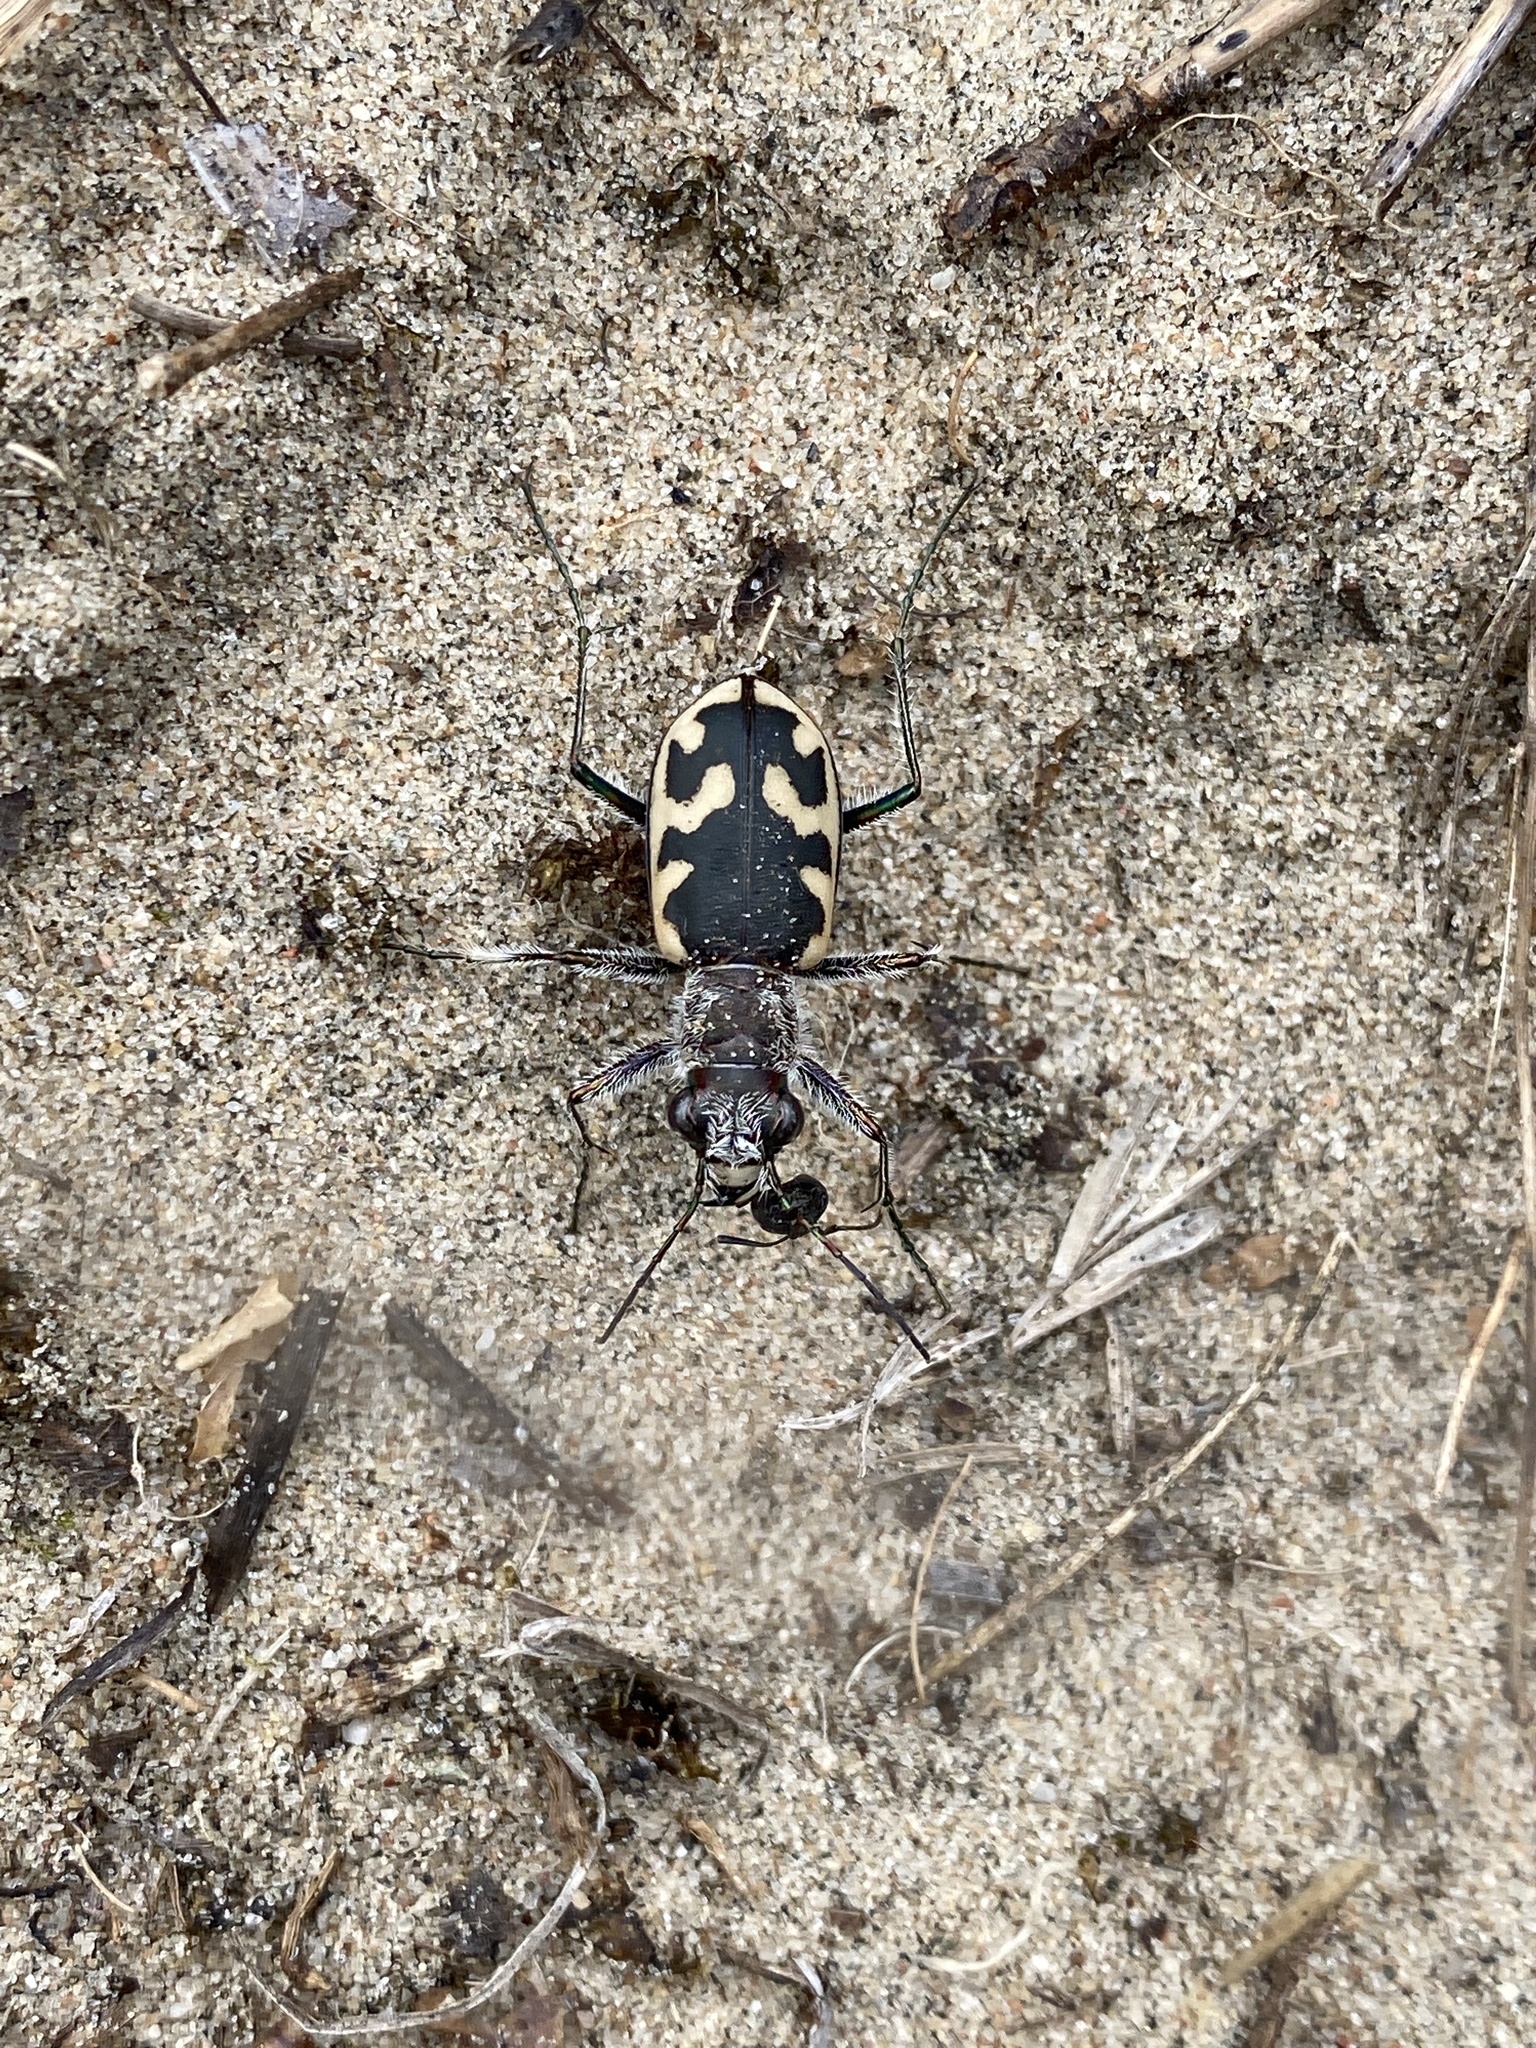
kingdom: Animalia
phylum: Arthropoda
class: Insecta
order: Coleoptera
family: Carabidae
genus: Cicindela
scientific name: Cicindela formosa
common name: Big sand tiger beetle
